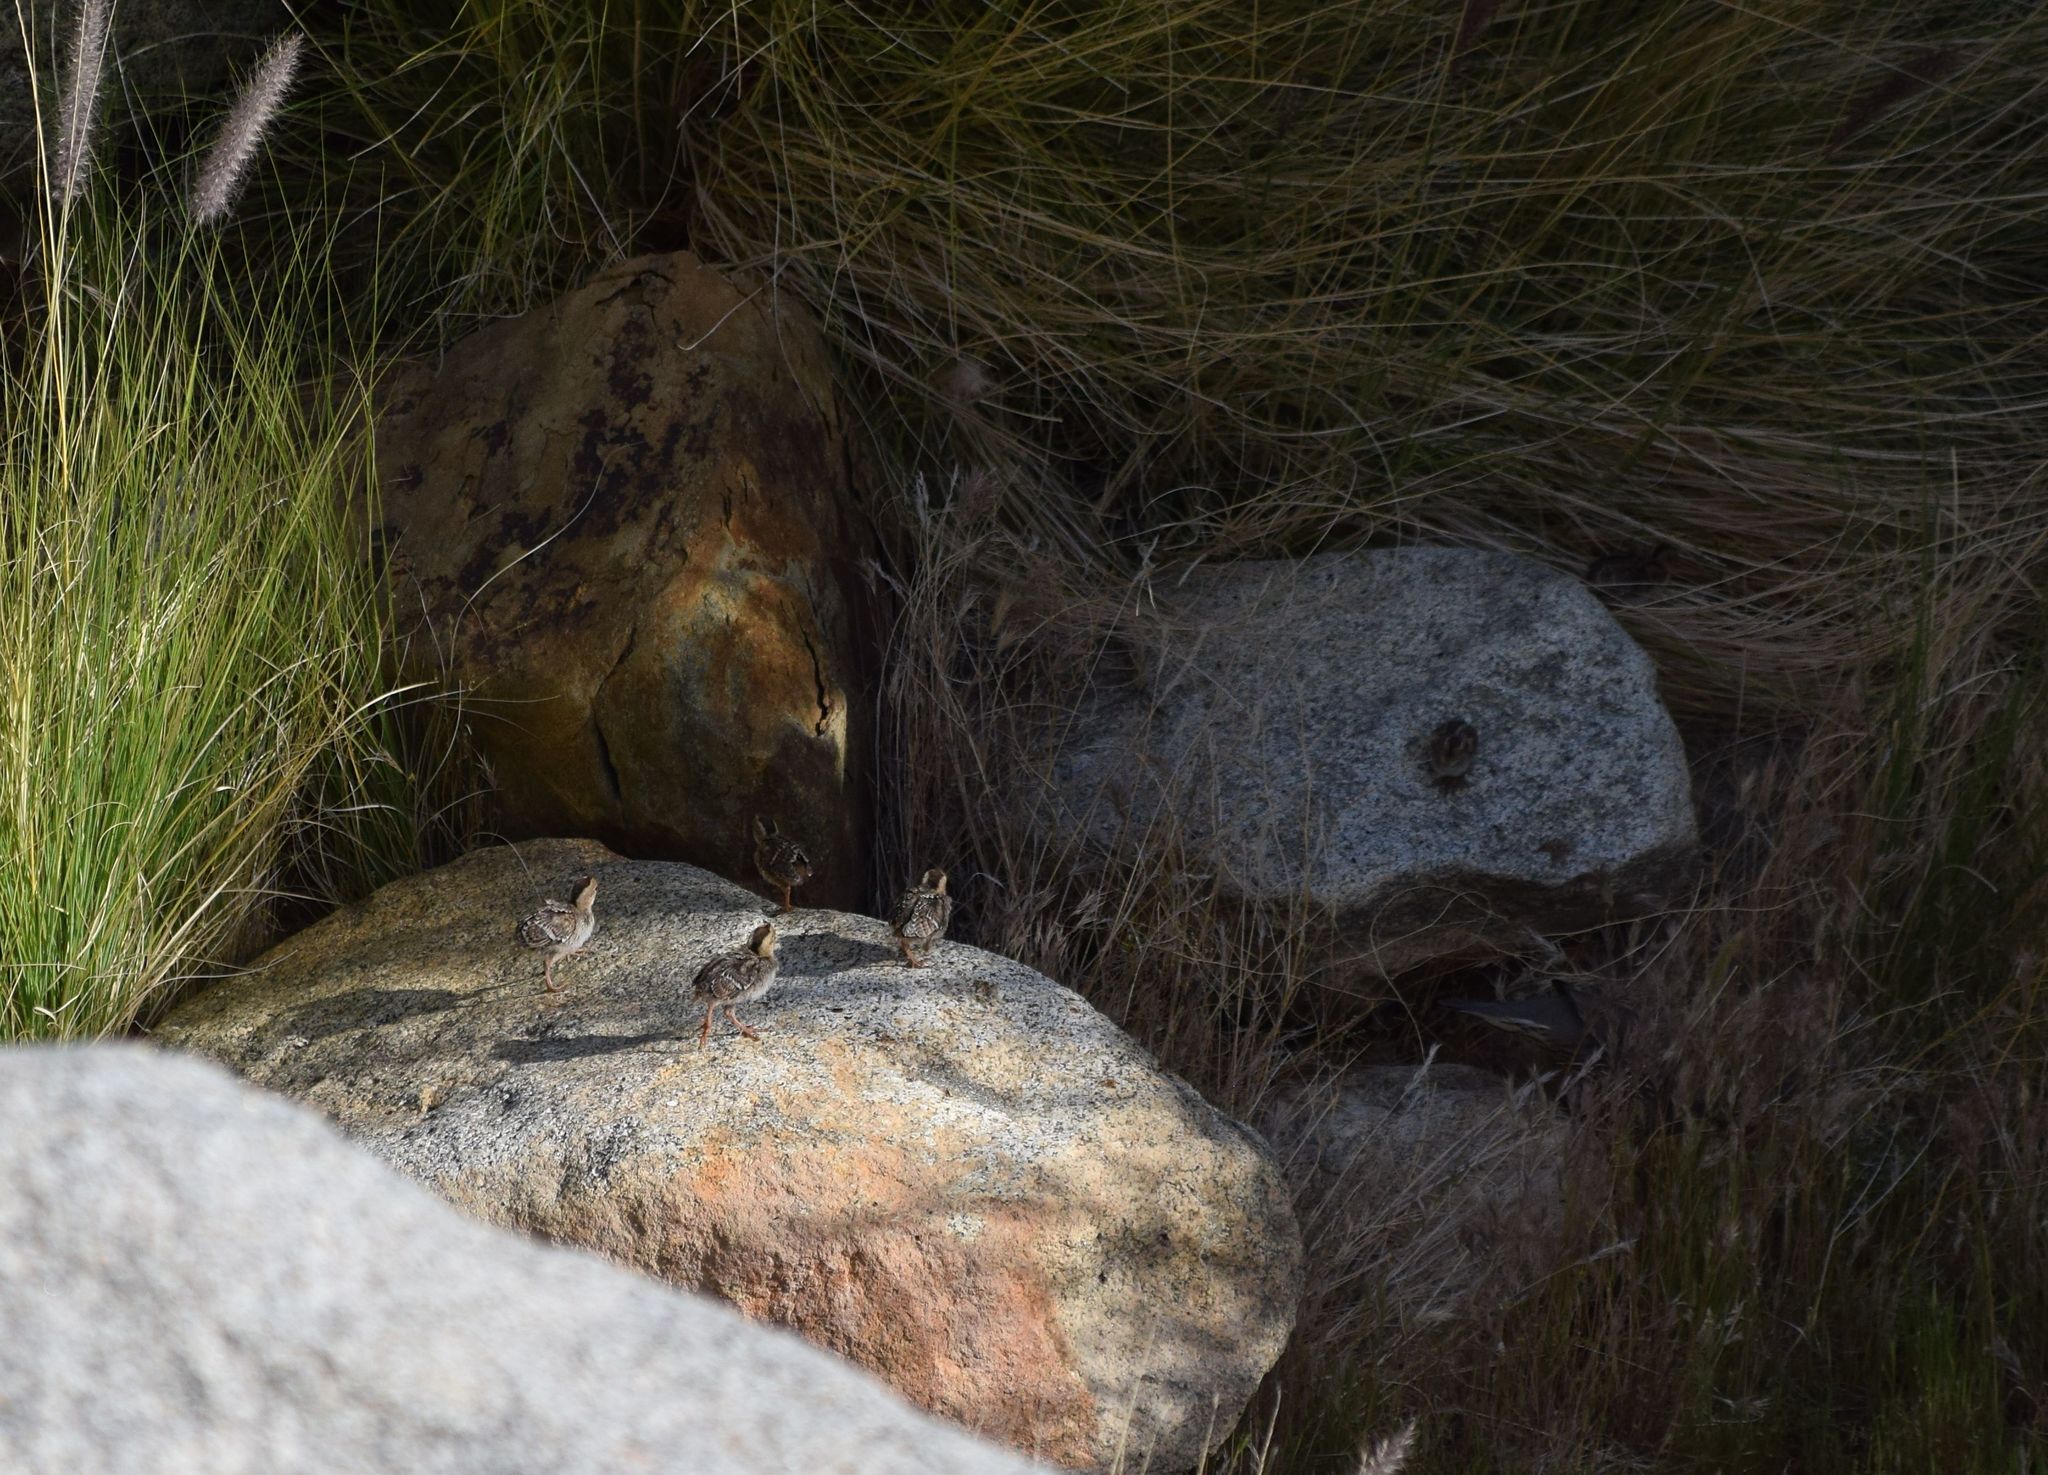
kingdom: Animalia
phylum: Chordata
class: Aves
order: Galliformes
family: Odontophoridae
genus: Callipepla
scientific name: Callipepla californica
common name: California quail
